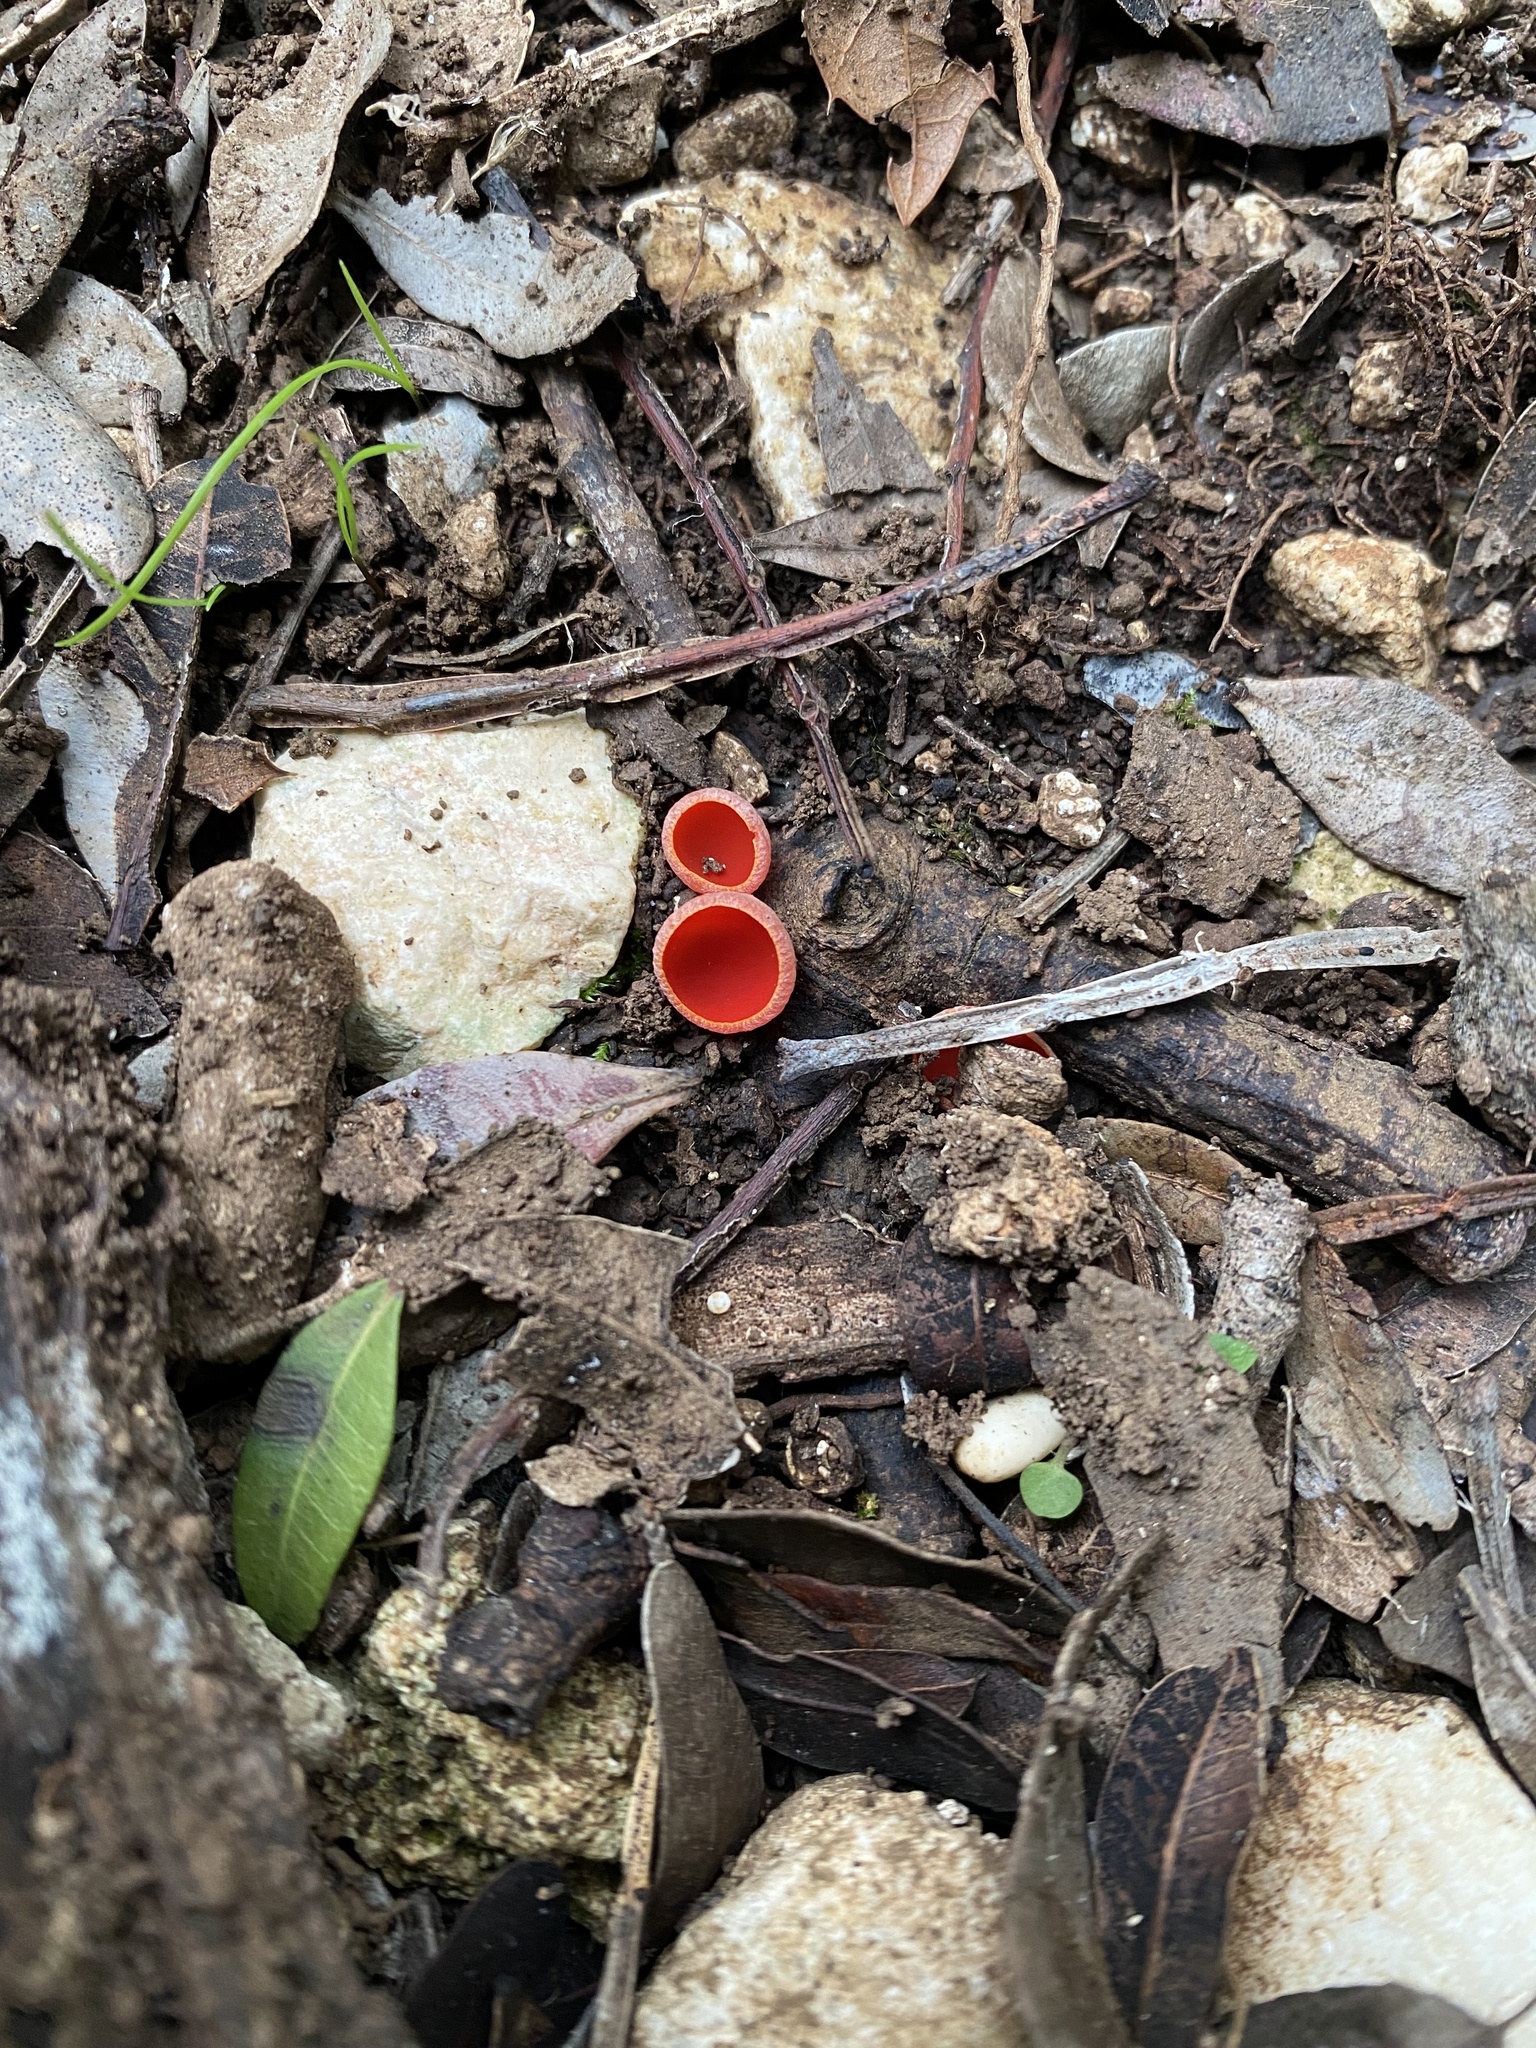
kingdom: Fungi
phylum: Ascomycota
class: Pezizomycetes
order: Pezizales
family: Sarcoscyphaceae
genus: Sarcoscypha
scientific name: Sarcoscypha coccinea
